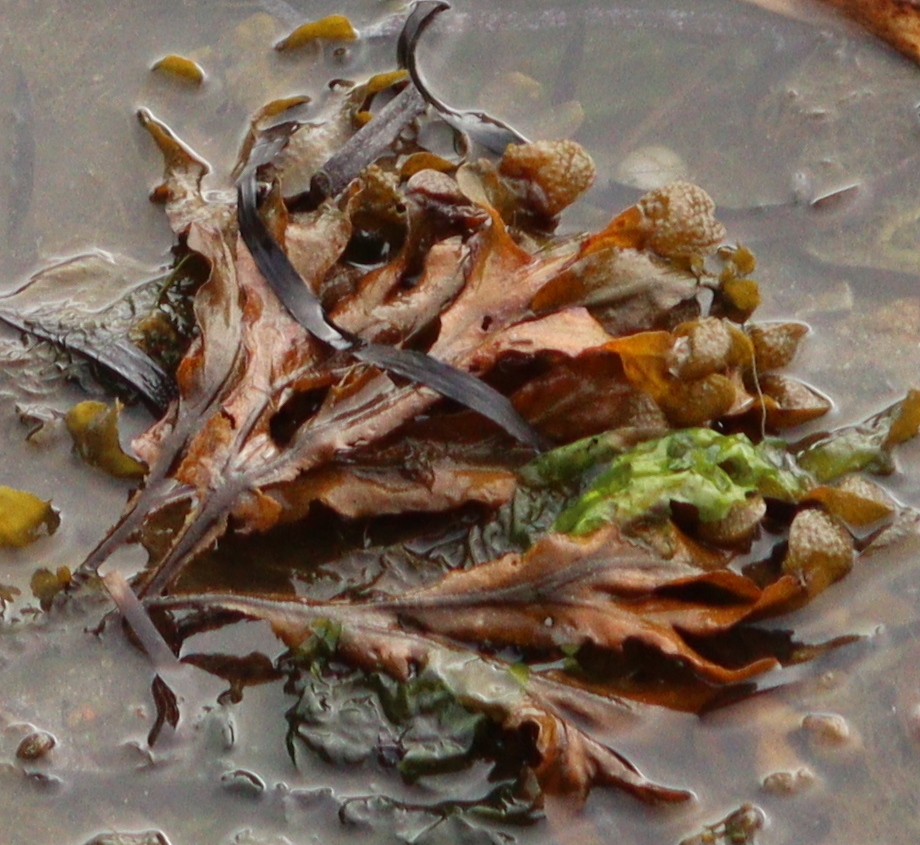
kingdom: Chromista
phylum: Ochrophyta
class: Phaeophyceae
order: Fucales
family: Fucaceae
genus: Fucus
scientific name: Fucus spiralis
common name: Spiral wrack
